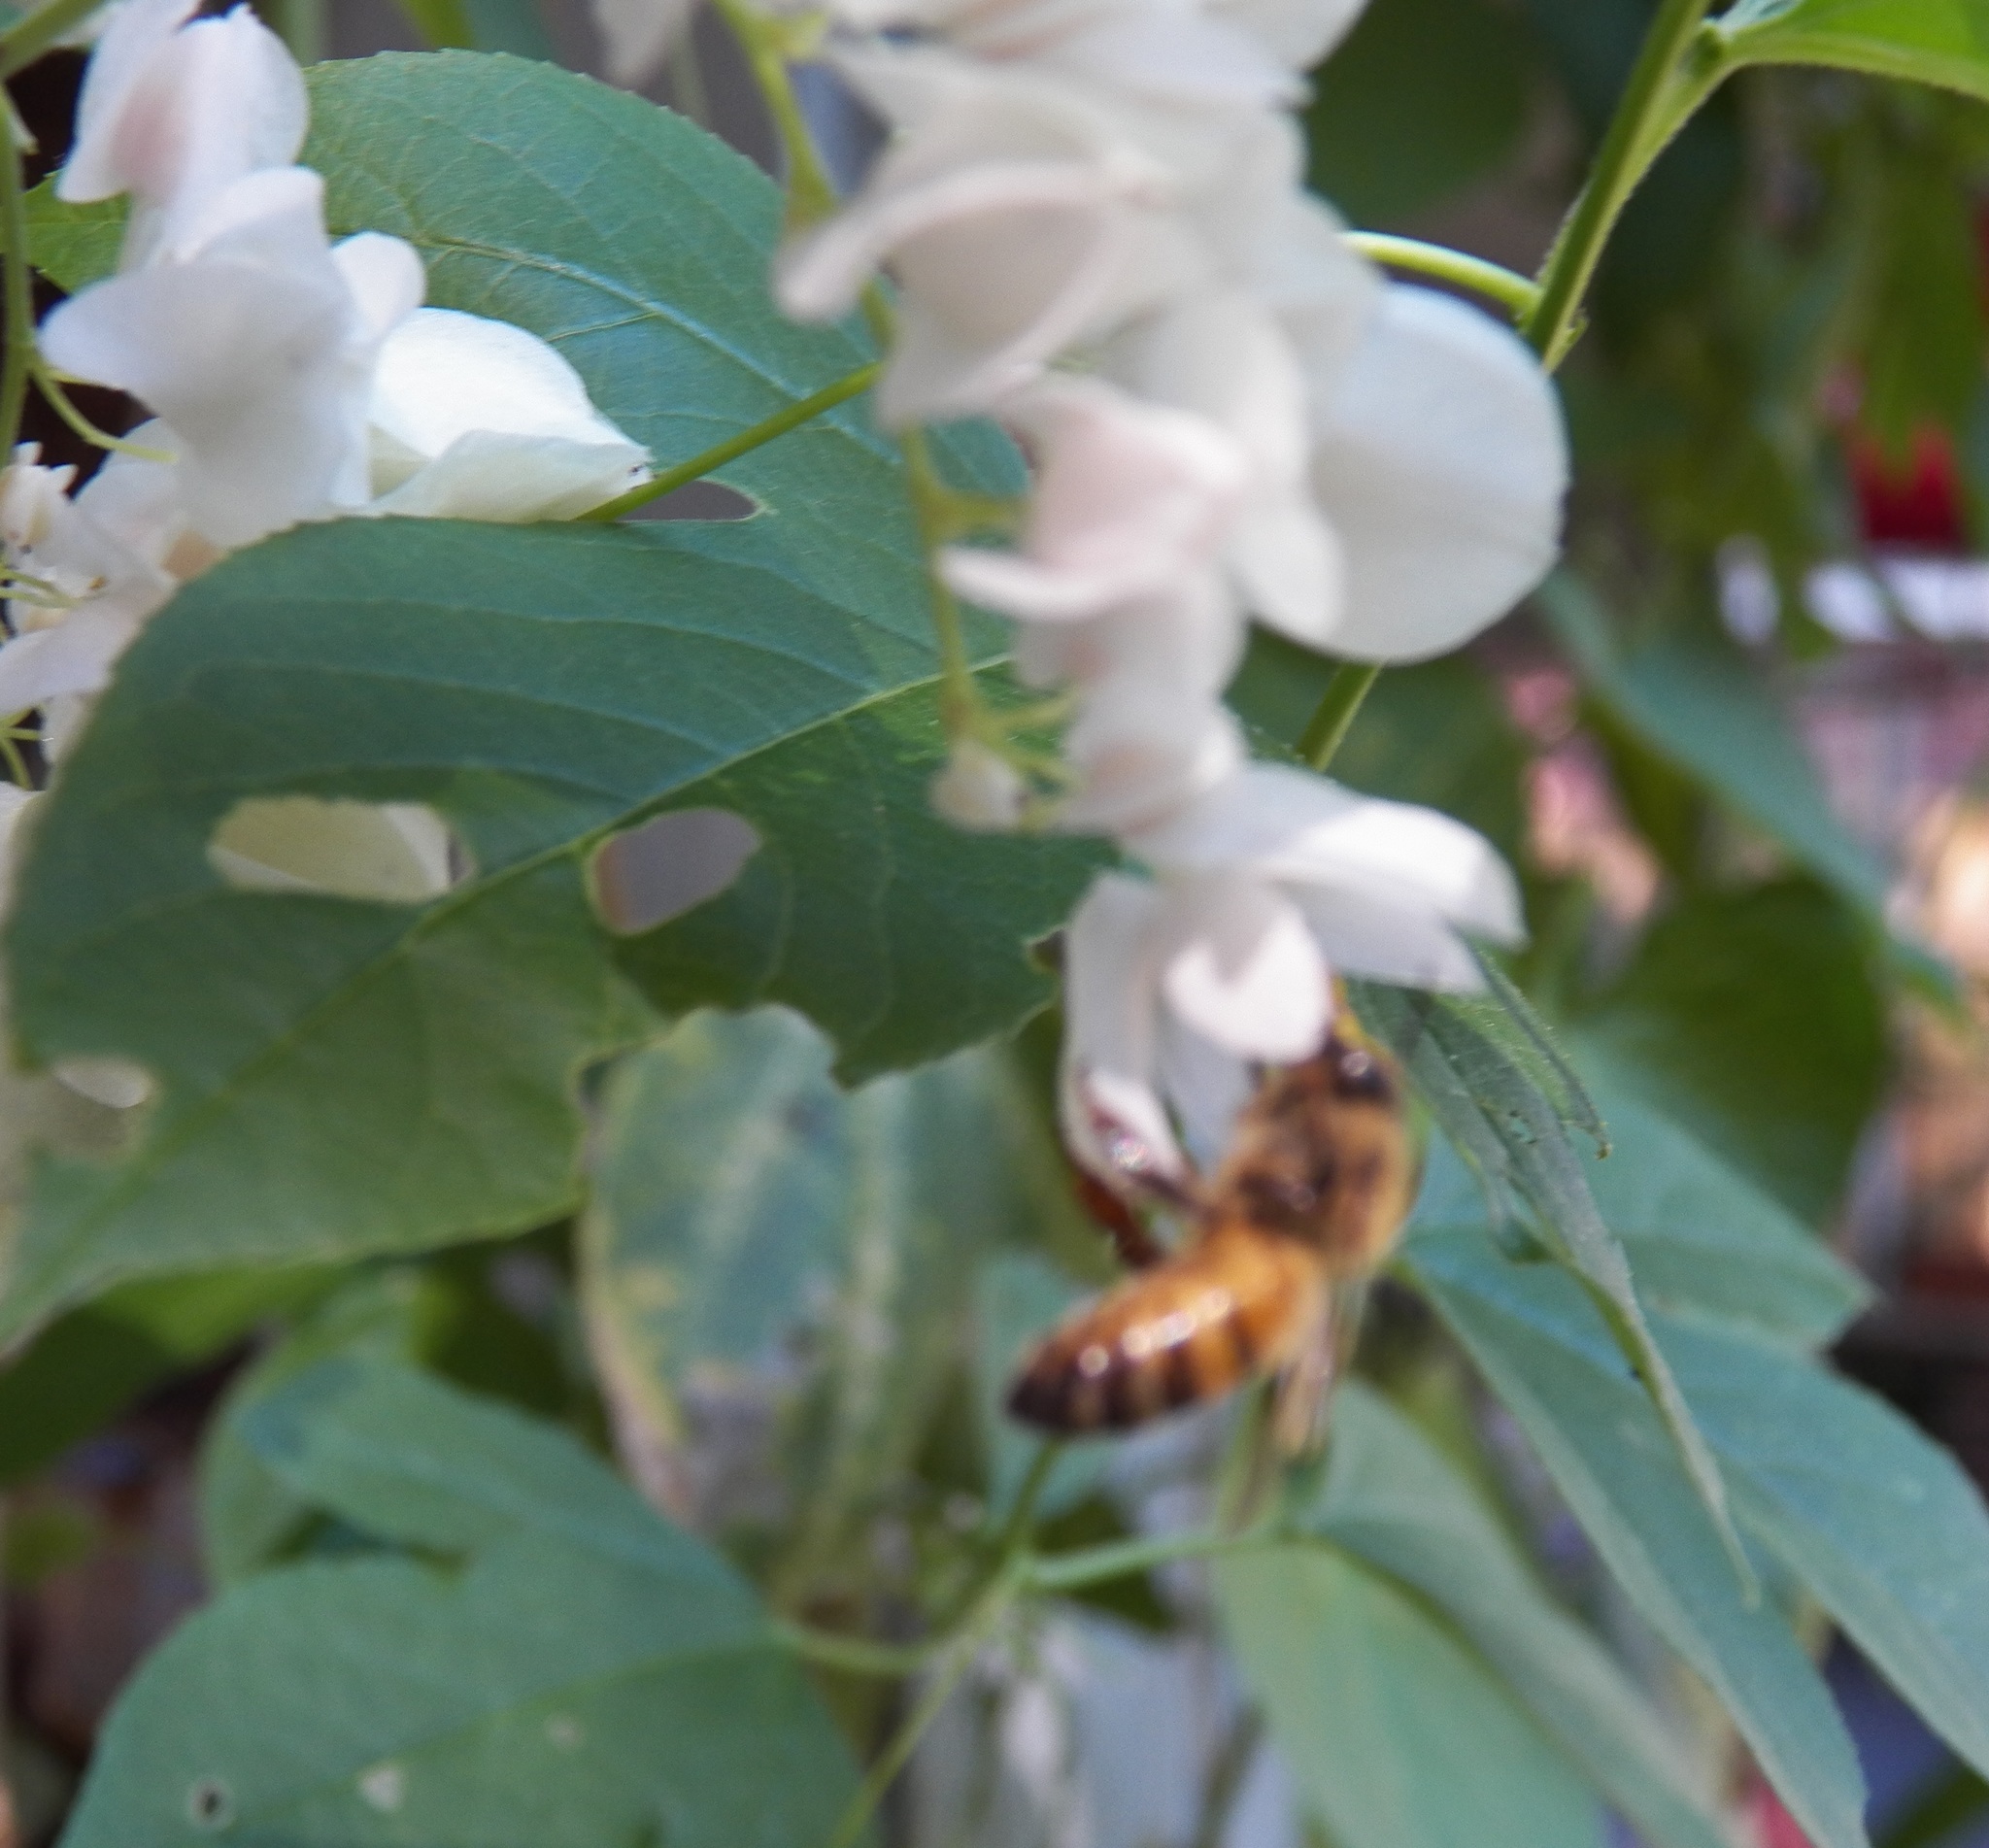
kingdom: Animalia
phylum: Arthropoda
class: Insecta
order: Hymenoptera
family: Apidae
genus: Apis
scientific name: Apis mellifera
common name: Honey bee
